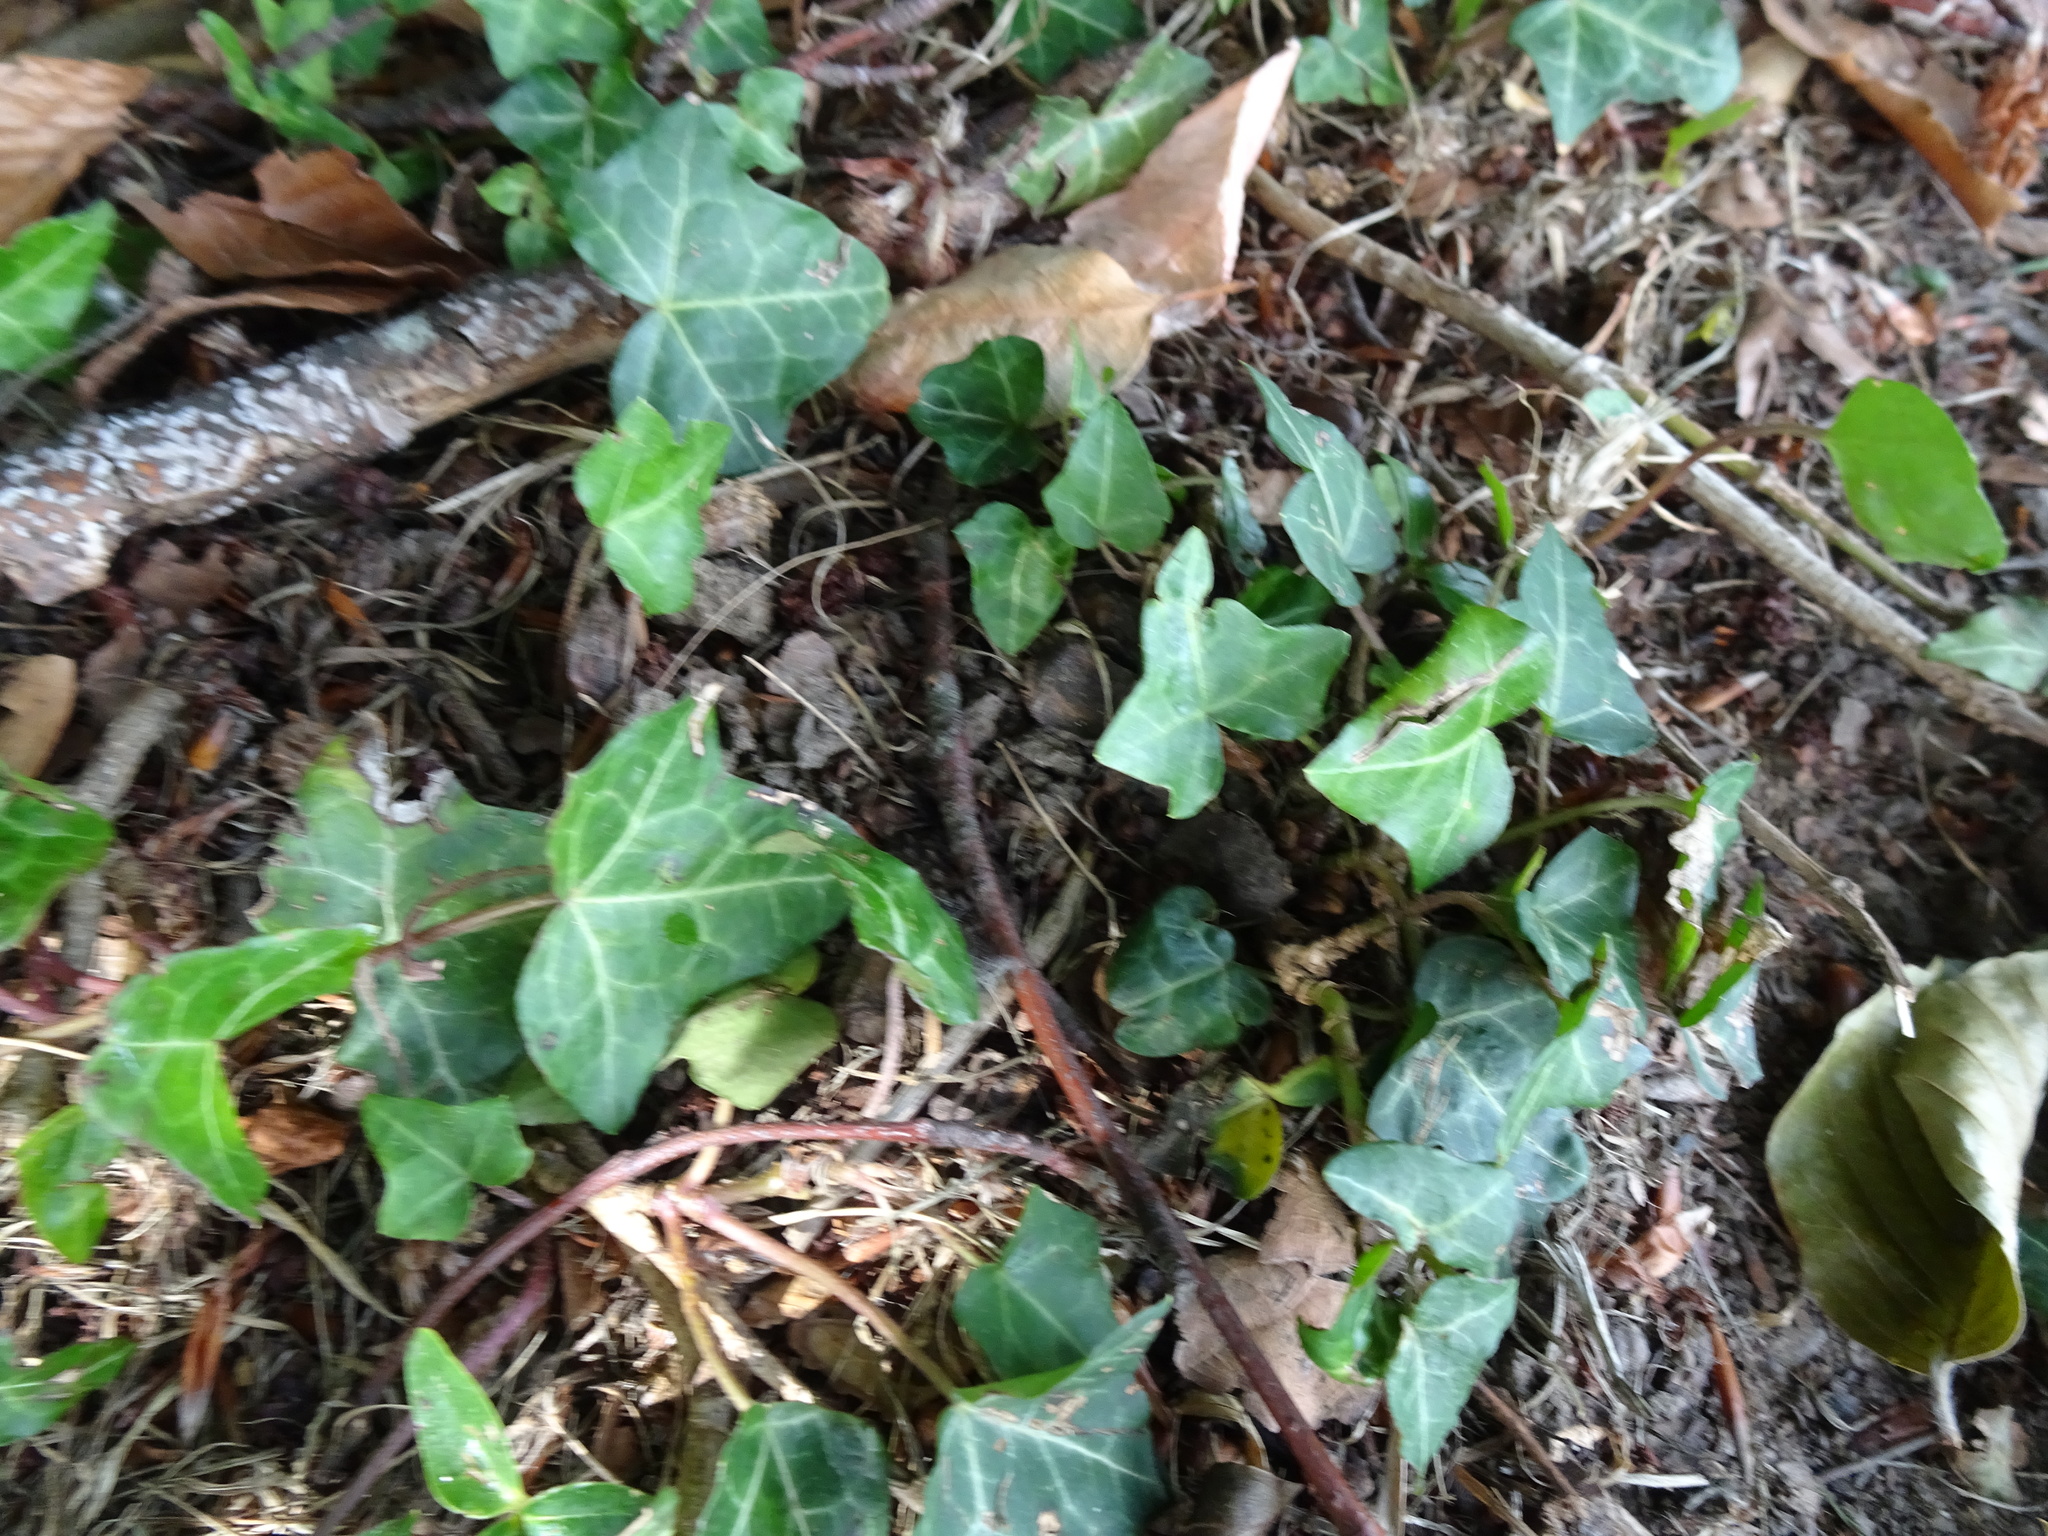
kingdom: Plantae
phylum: Tracheophyta
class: Magnoliopsida
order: Apiales
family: Araliaceae
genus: Hedera
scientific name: Hedera helix
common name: Ivy
